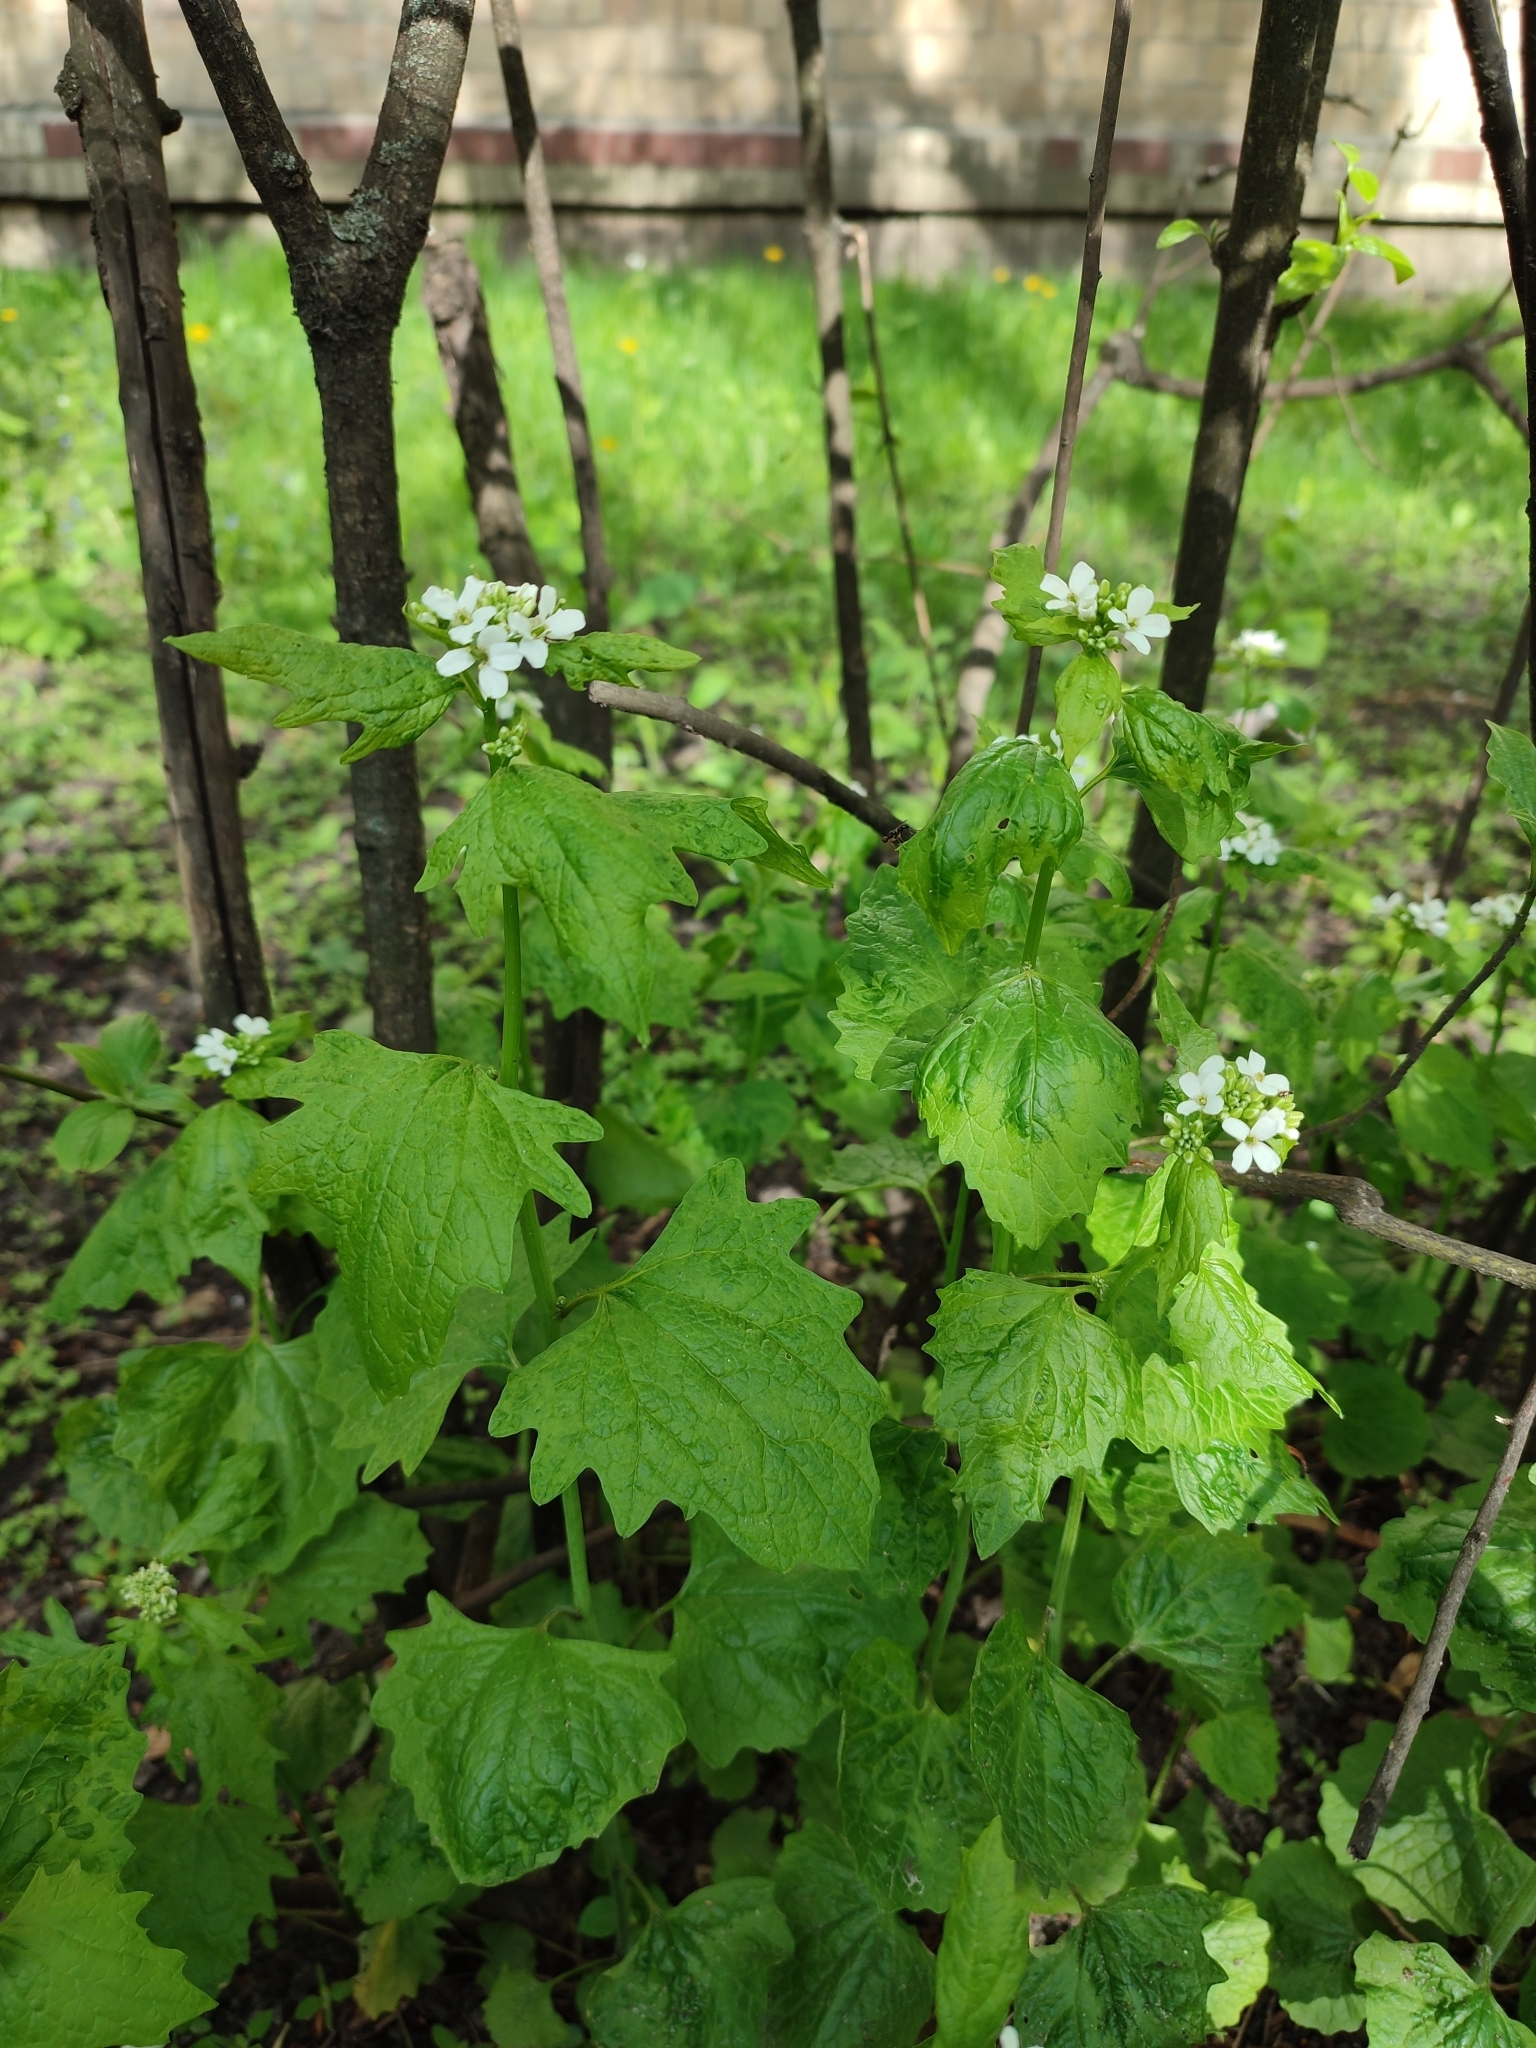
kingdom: Plantae
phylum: Tracheophyta
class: Magnoliopsida
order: Brassicales
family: Brassicaceae
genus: Alliaria
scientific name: Alliaria petiolata
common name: Garlic mustard
